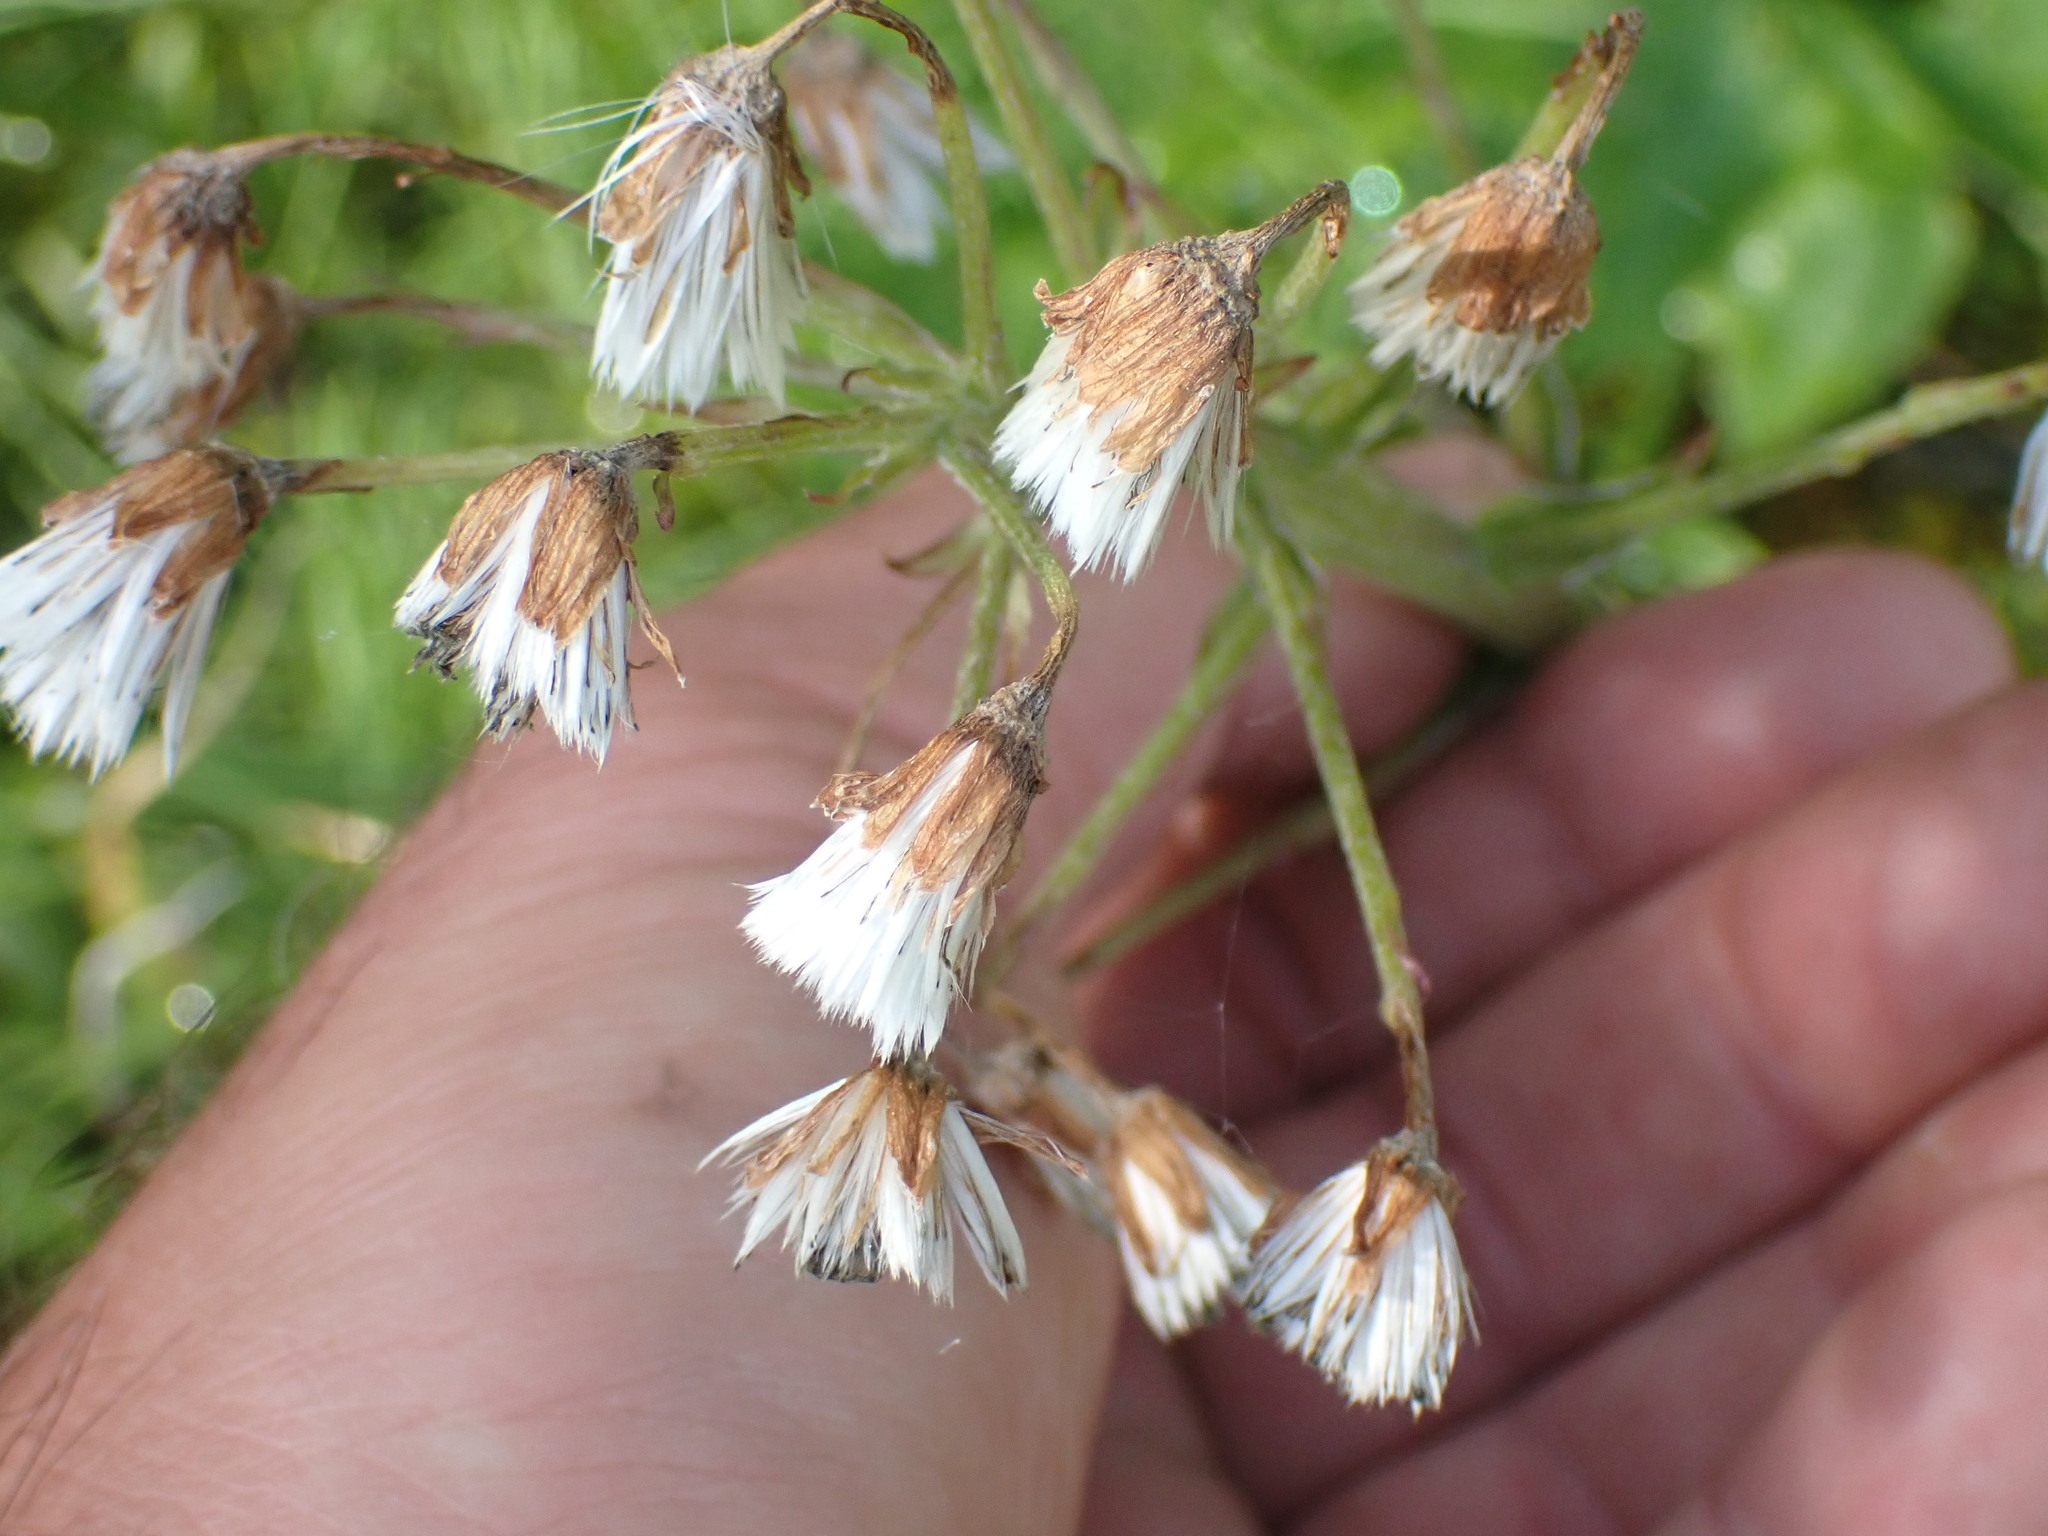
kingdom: Plantae
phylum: Tracheophyta
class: Magnoliopsida
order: Asterales
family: Asteraceae
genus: Petasites
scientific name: Petasites frigidus
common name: Arctic butterbur
